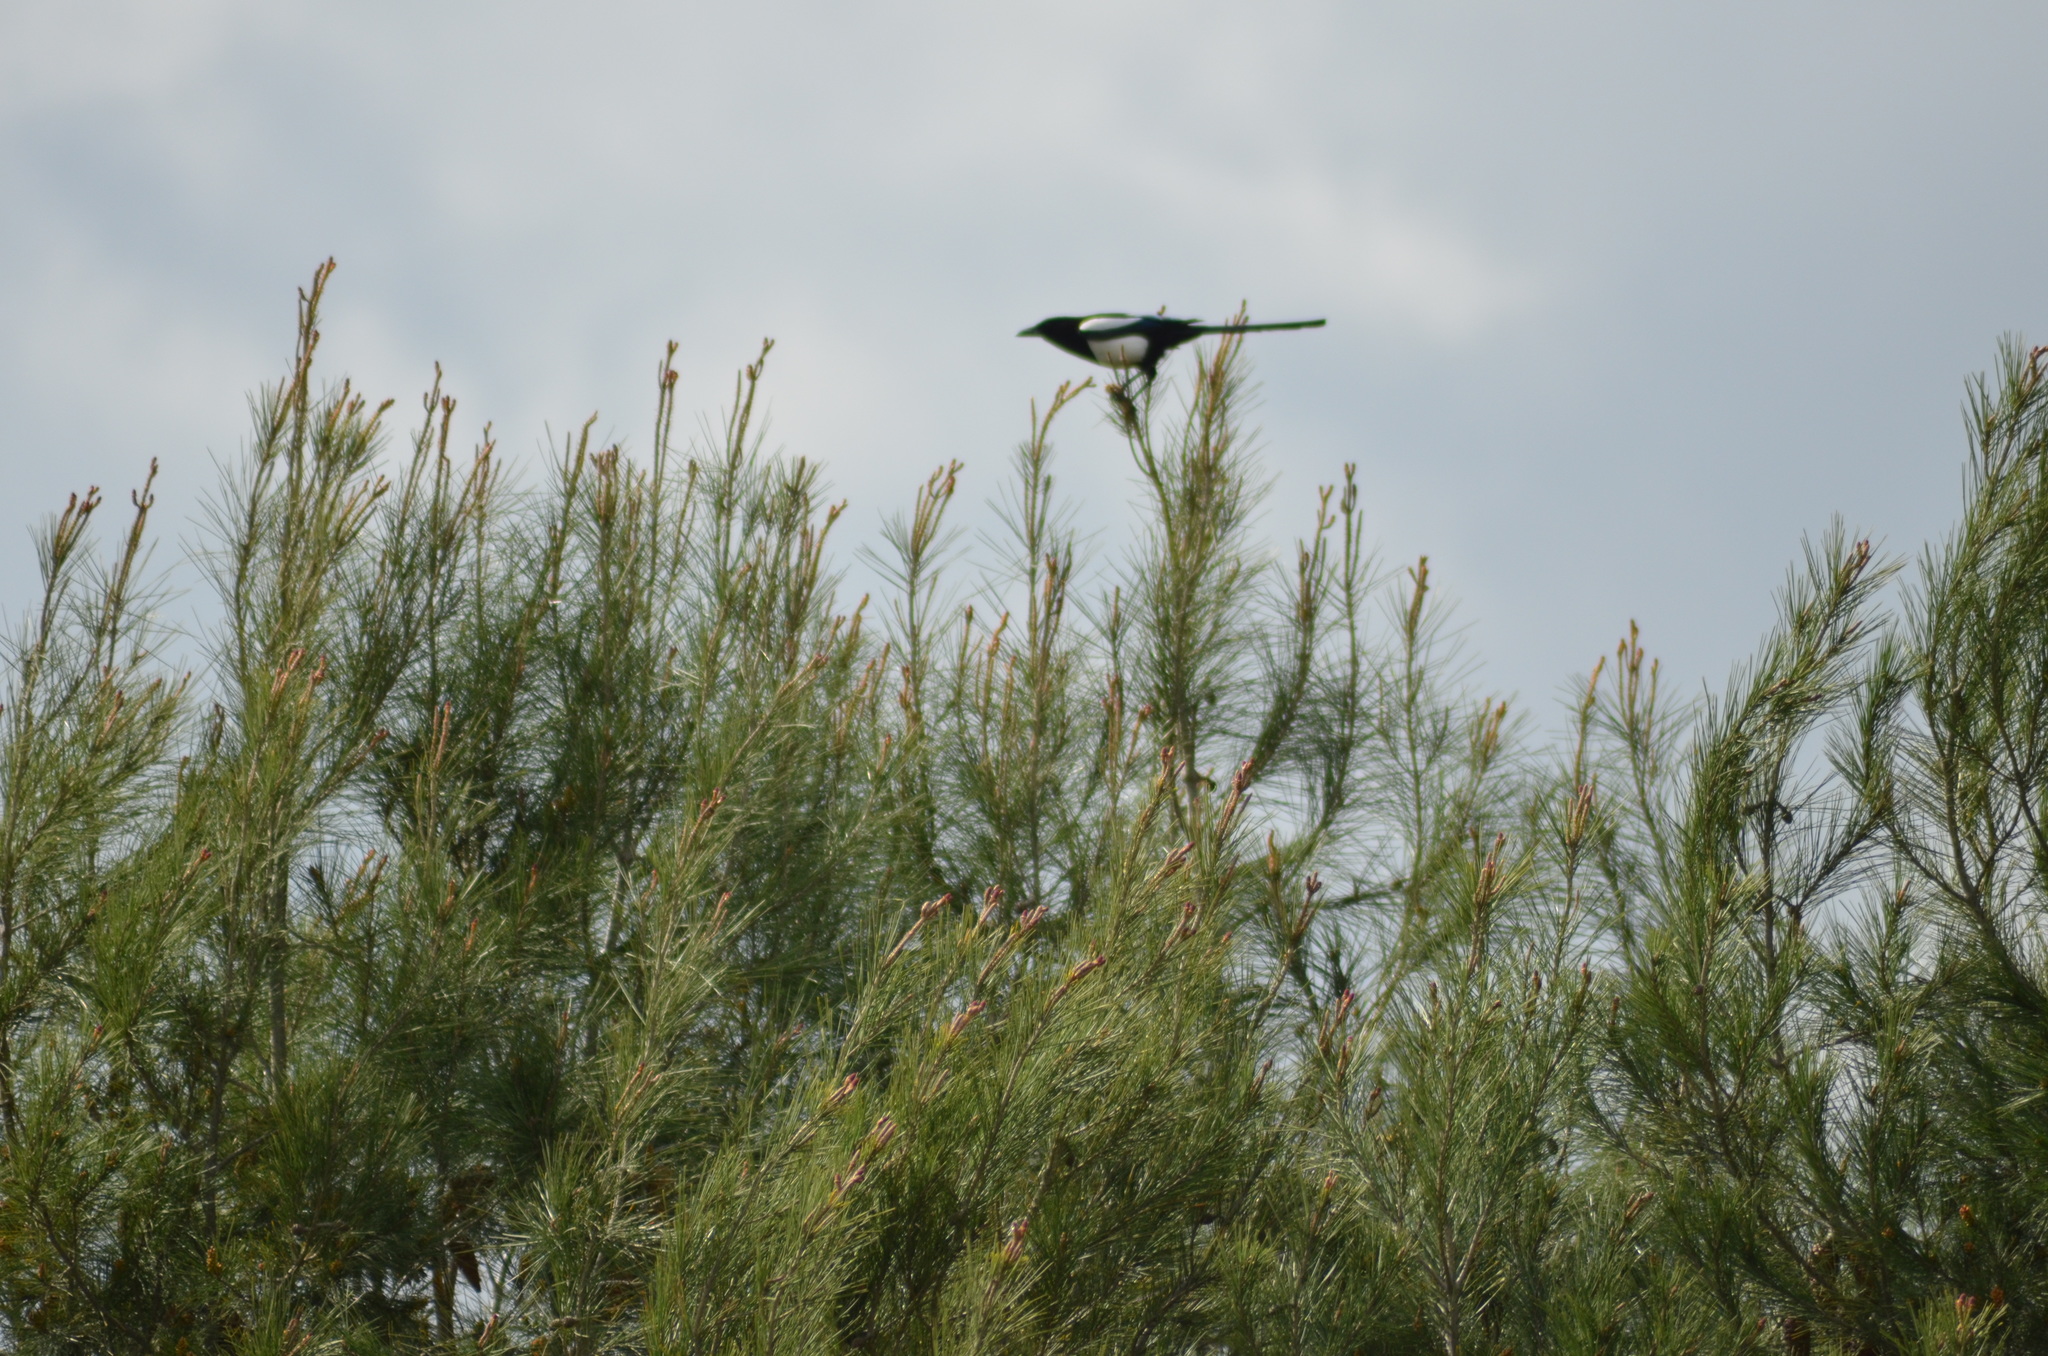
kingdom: Animalia
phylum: Chordata
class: Aves
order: Passeriformes
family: Corvidae
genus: Pica
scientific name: Pica pica
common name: Eurasian magpie
